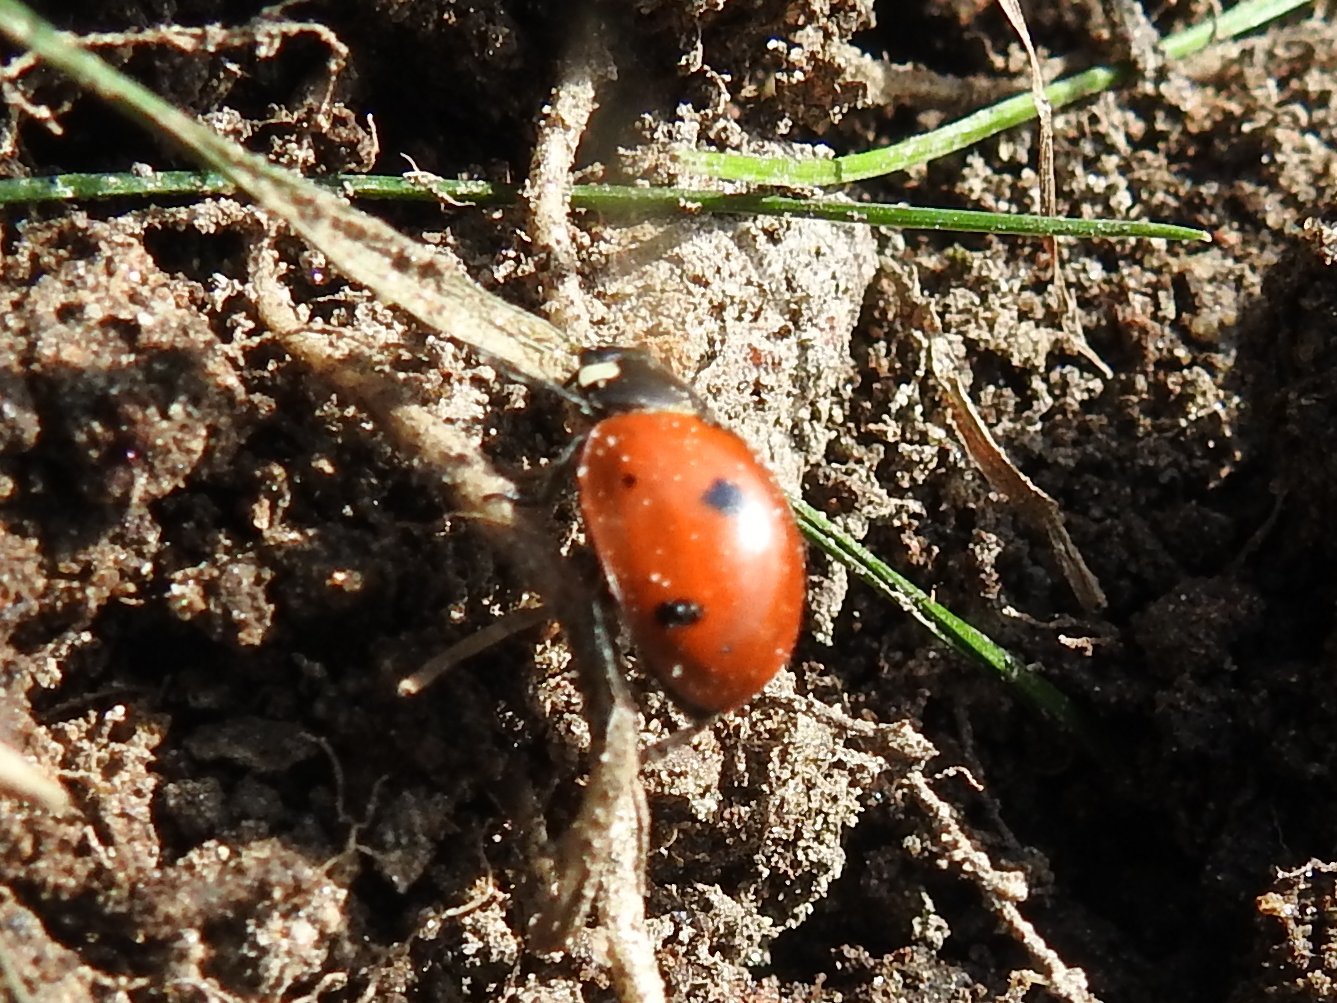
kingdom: Animalia
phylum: Arthropoda
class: Insecta
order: Coleoptera
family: Coccinellidae
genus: Coccinella
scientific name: Coccinella septempunctata
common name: Sevenspotted lady beetle
